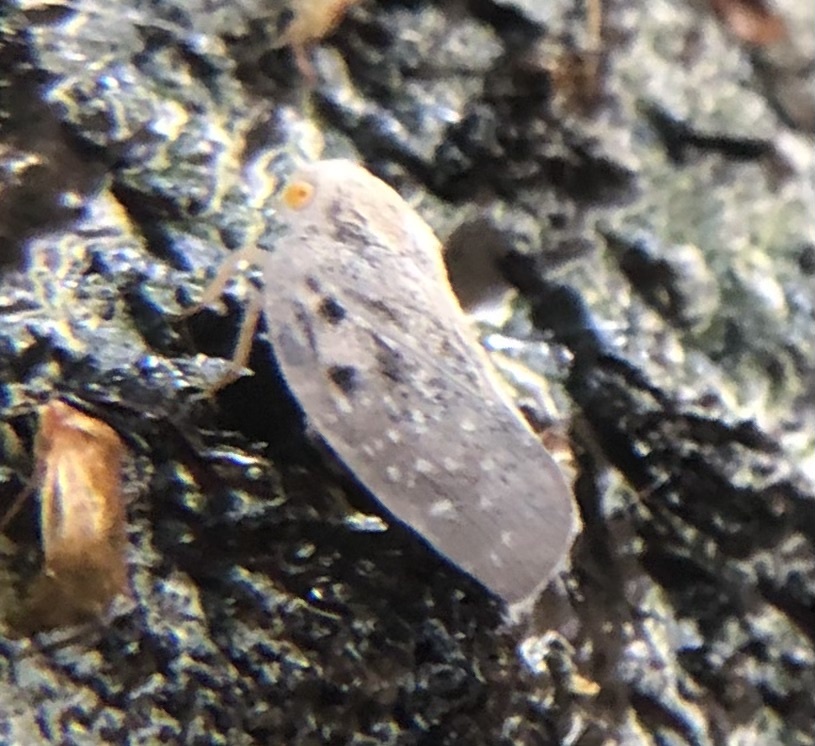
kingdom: Animalia
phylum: Arthropoda
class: Insecta
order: Hemiptera
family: Flatidae
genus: Metcalfa
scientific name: Metcalfa pruinosa
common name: Citrus flatid planthopper
